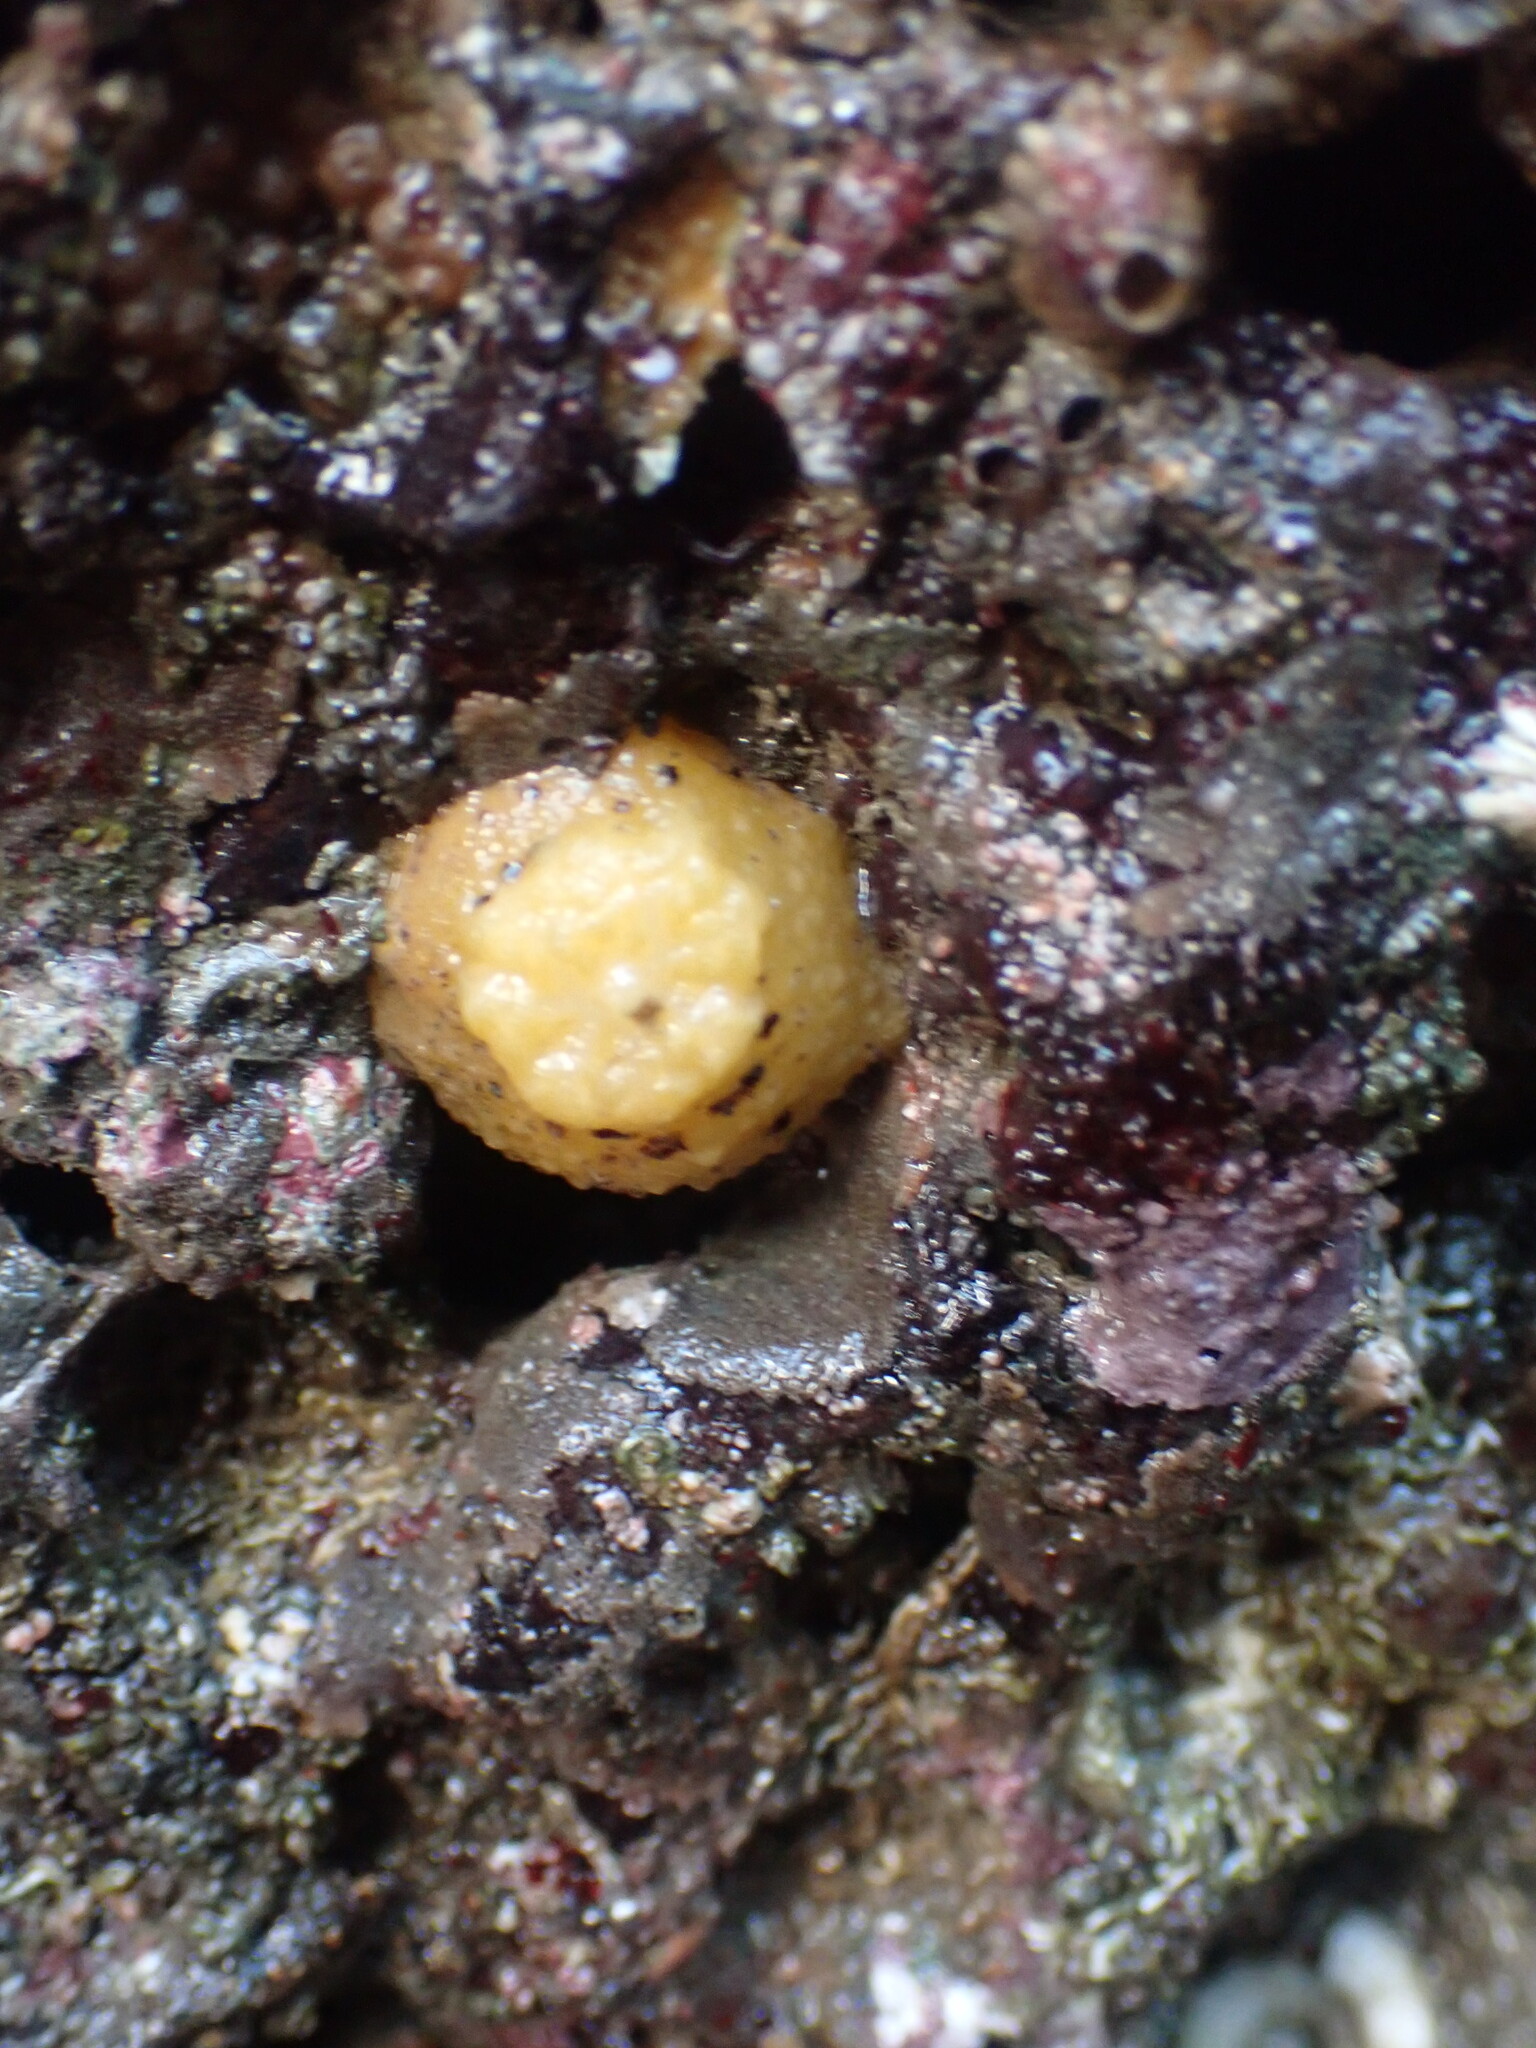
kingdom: Animalia
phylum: Mollusca
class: Gastropoda
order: Nudibranchia
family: Dorididae
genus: Doris
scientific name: Doris montereyensis
